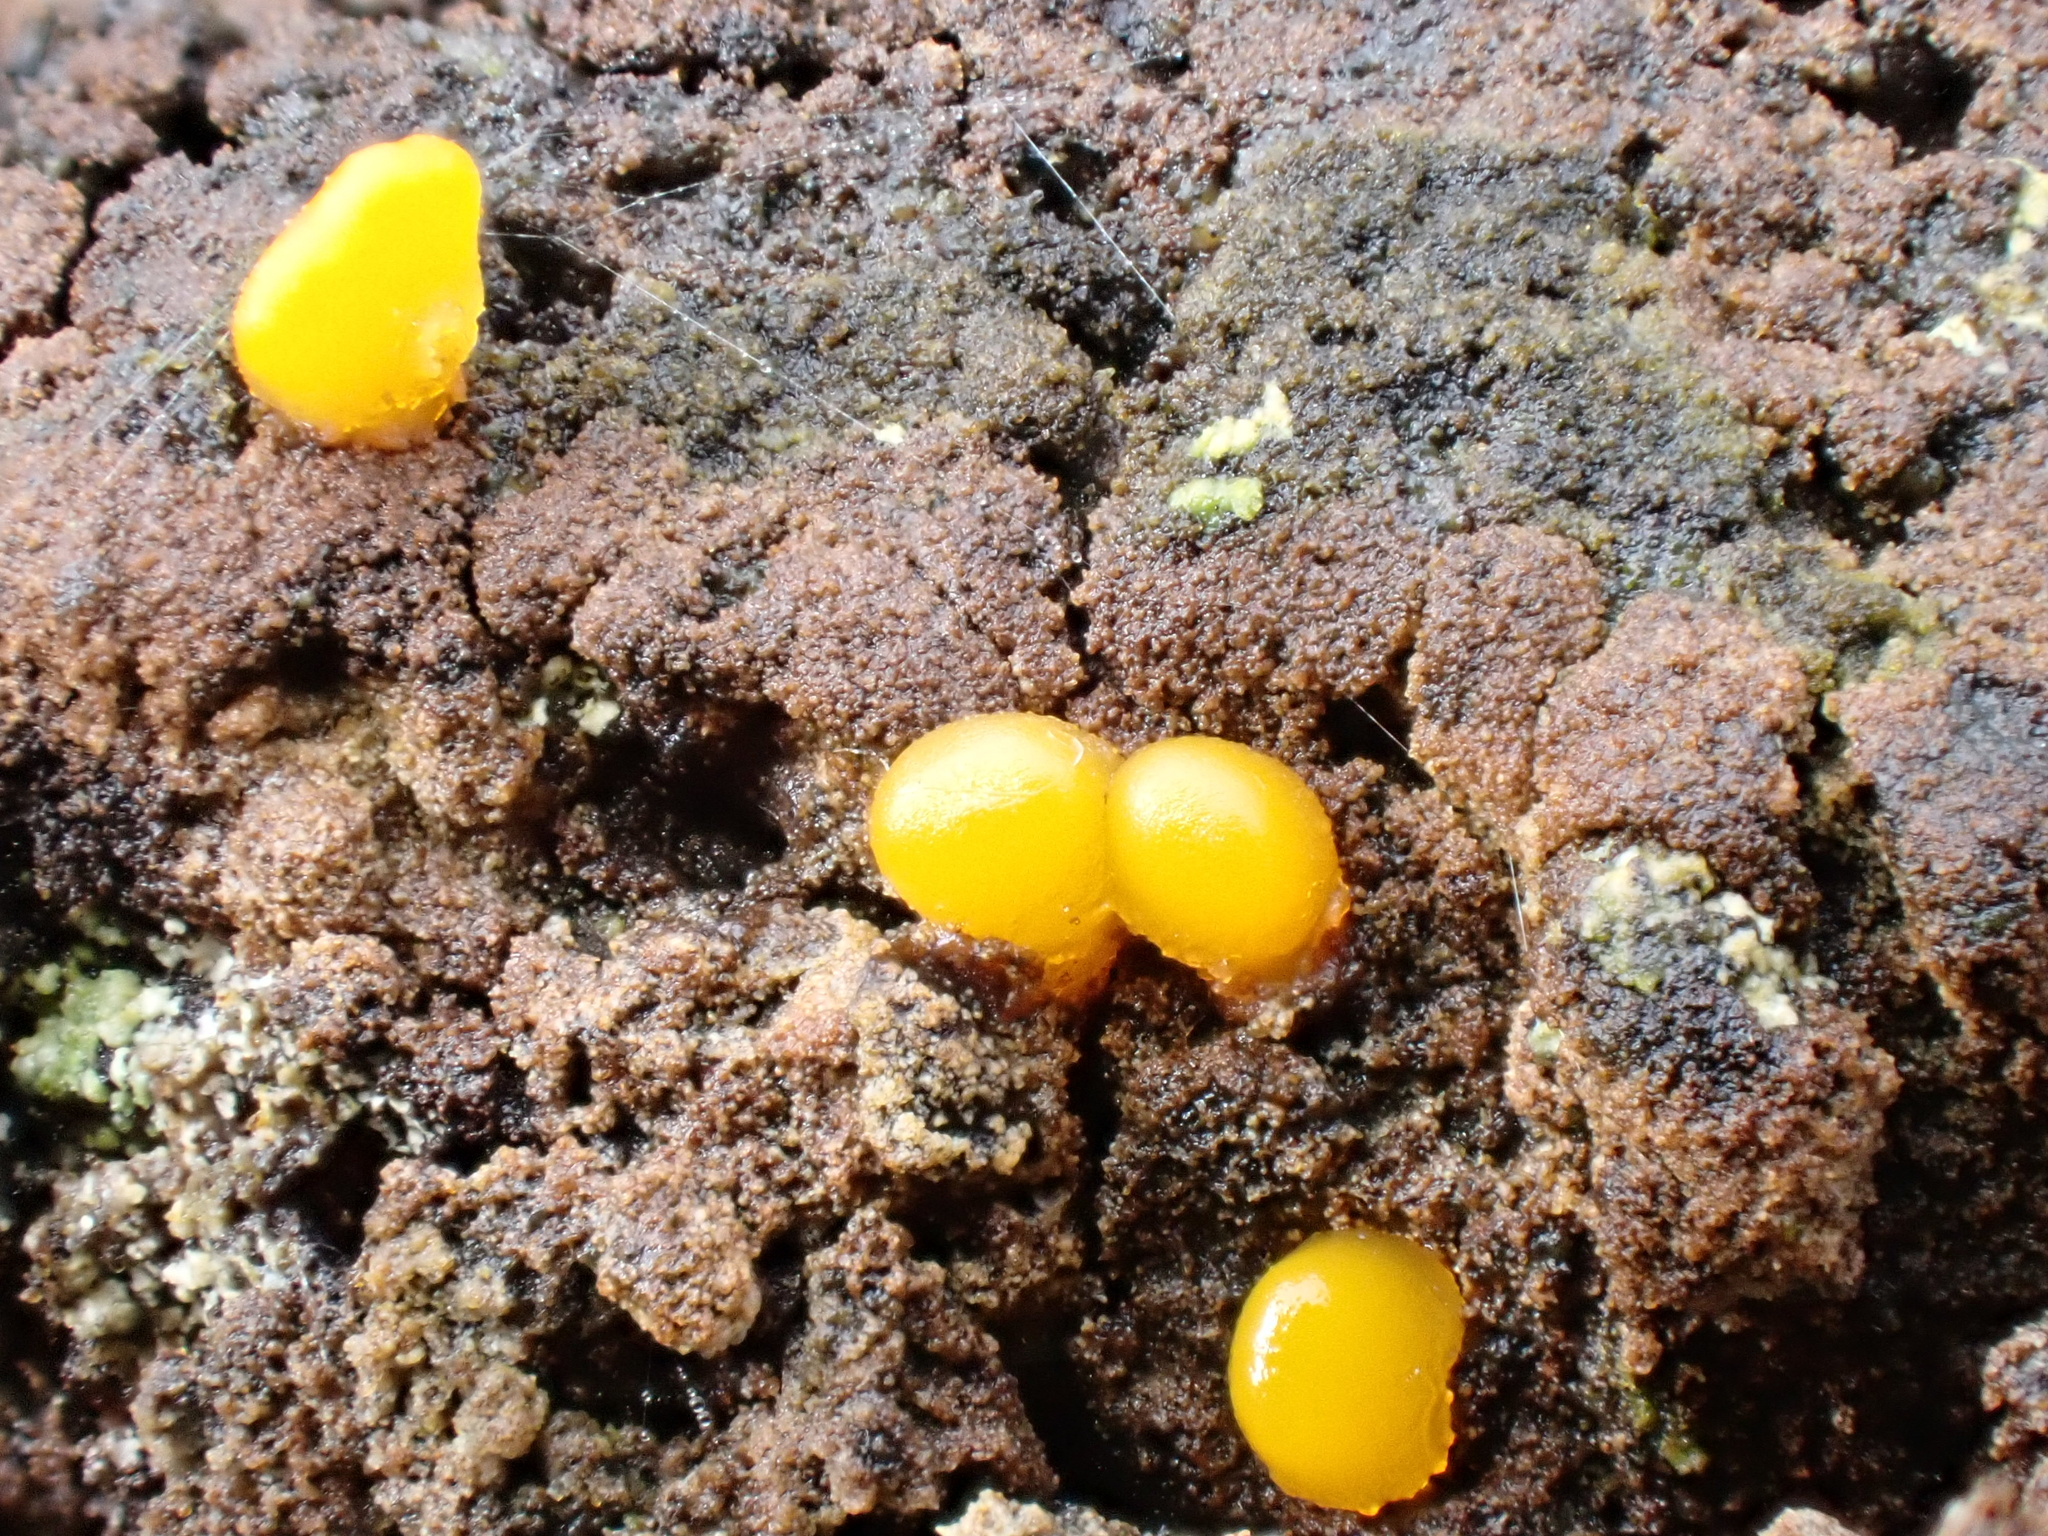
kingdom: Fungi
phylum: Basidiomycota
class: Dacrymycetes
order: Dacrymycetales
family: Dacrymycetaceae
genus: Dacrymyces
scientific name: Dacrymyces stillatus
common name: Common jelly spot
